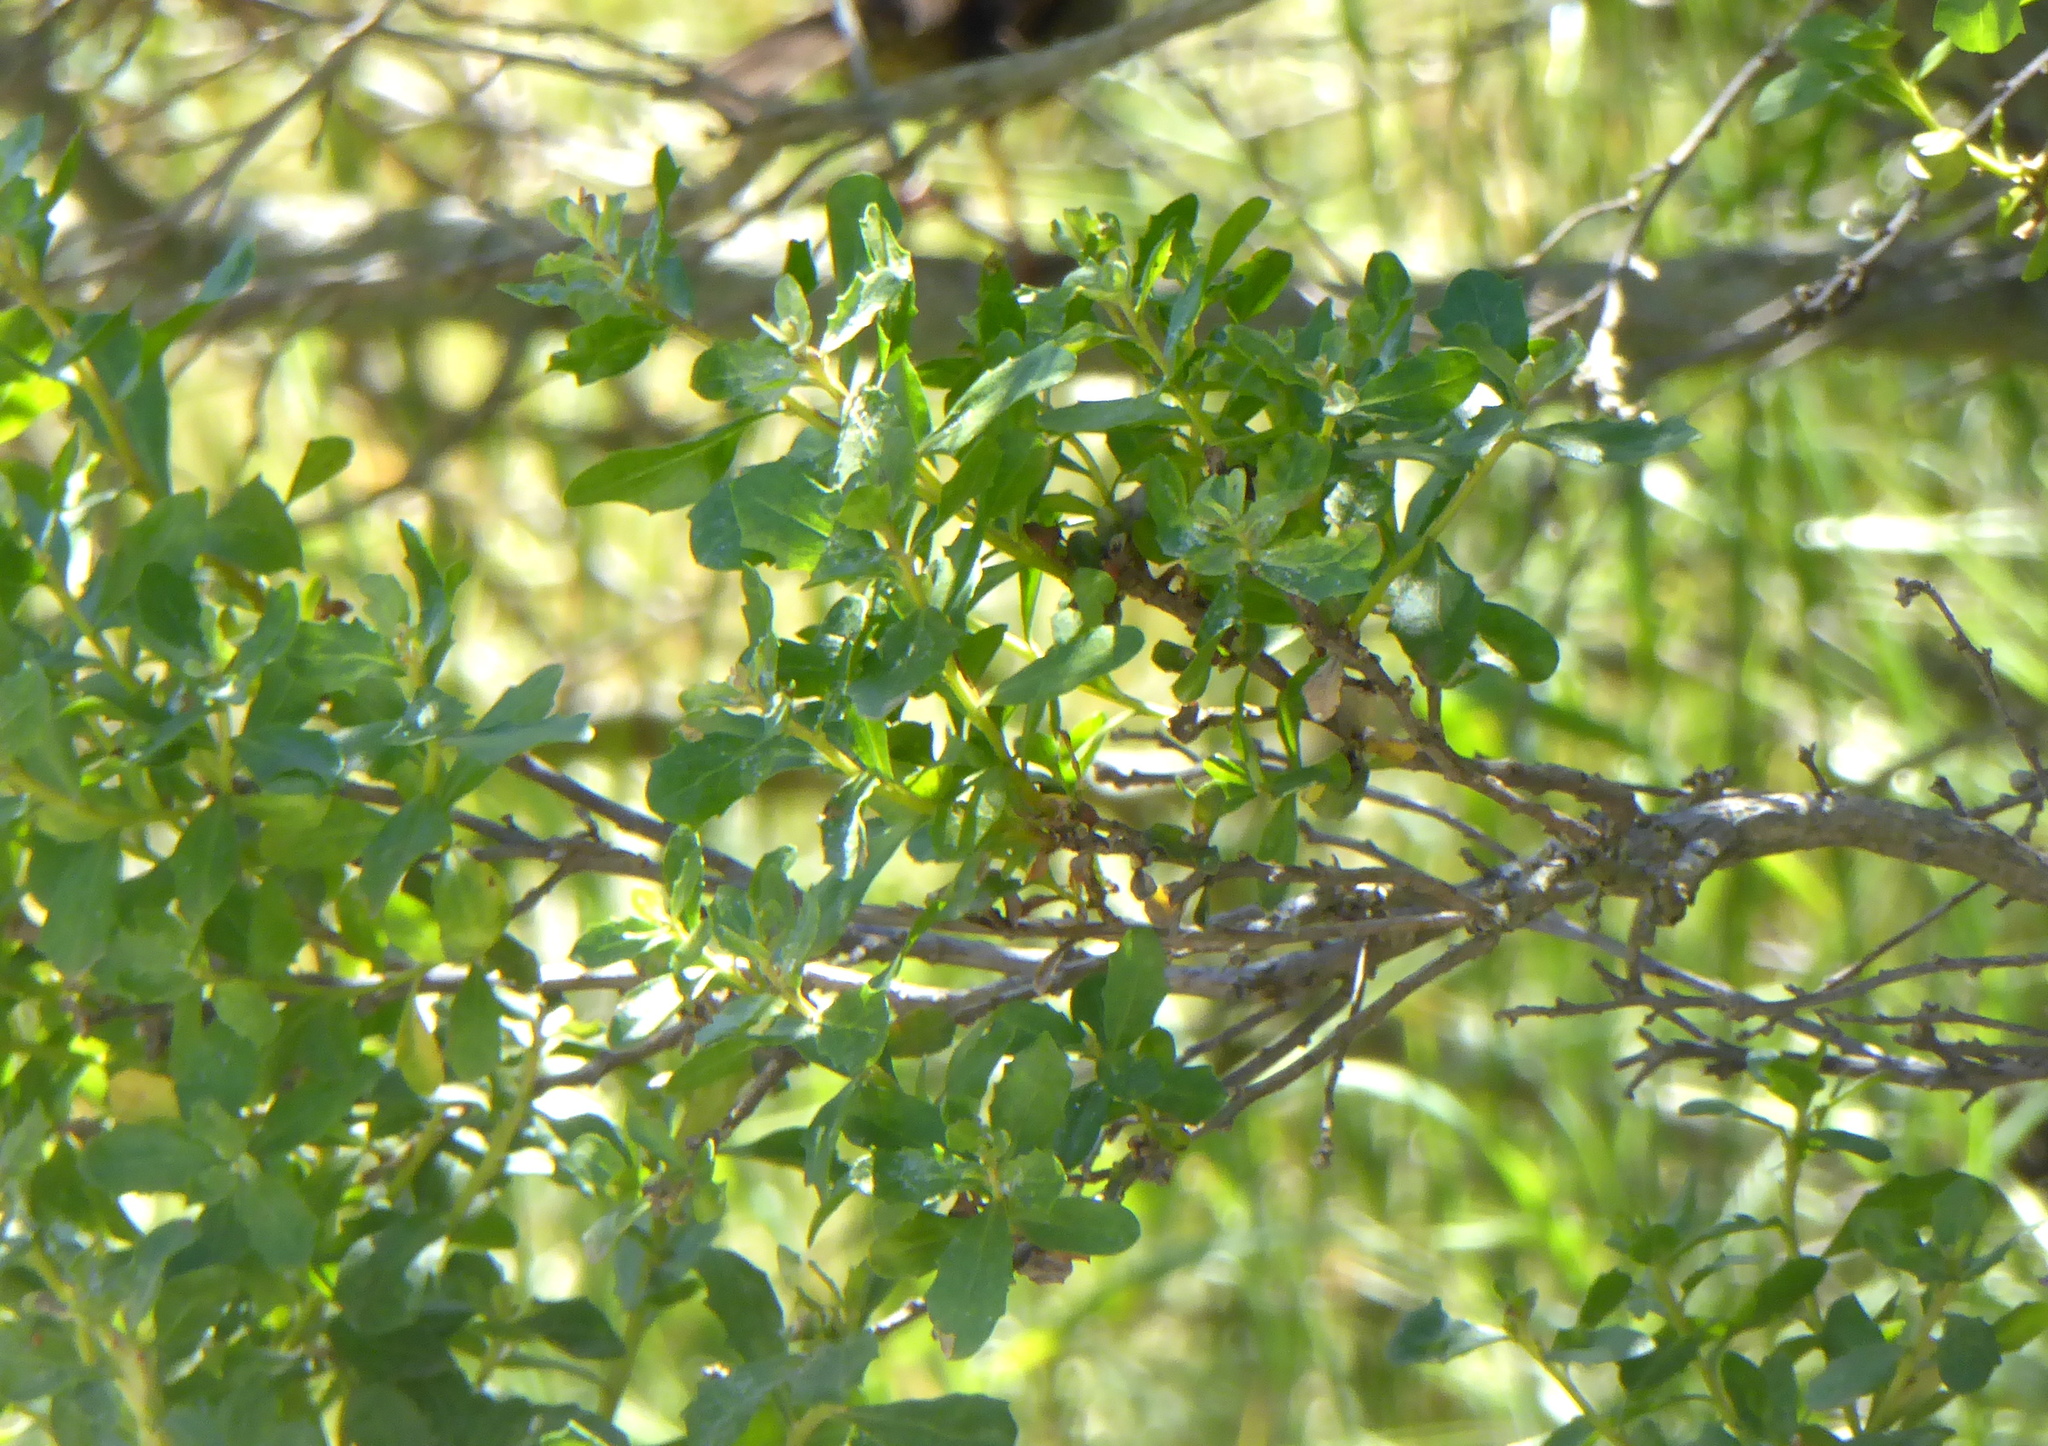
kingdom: Plantae
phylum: Tracheophyta
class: Magnoliopsida
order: Asterales
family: Asteraceae
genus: Baccharis
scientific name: Baccharis pilularis
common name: Coyotebrush
